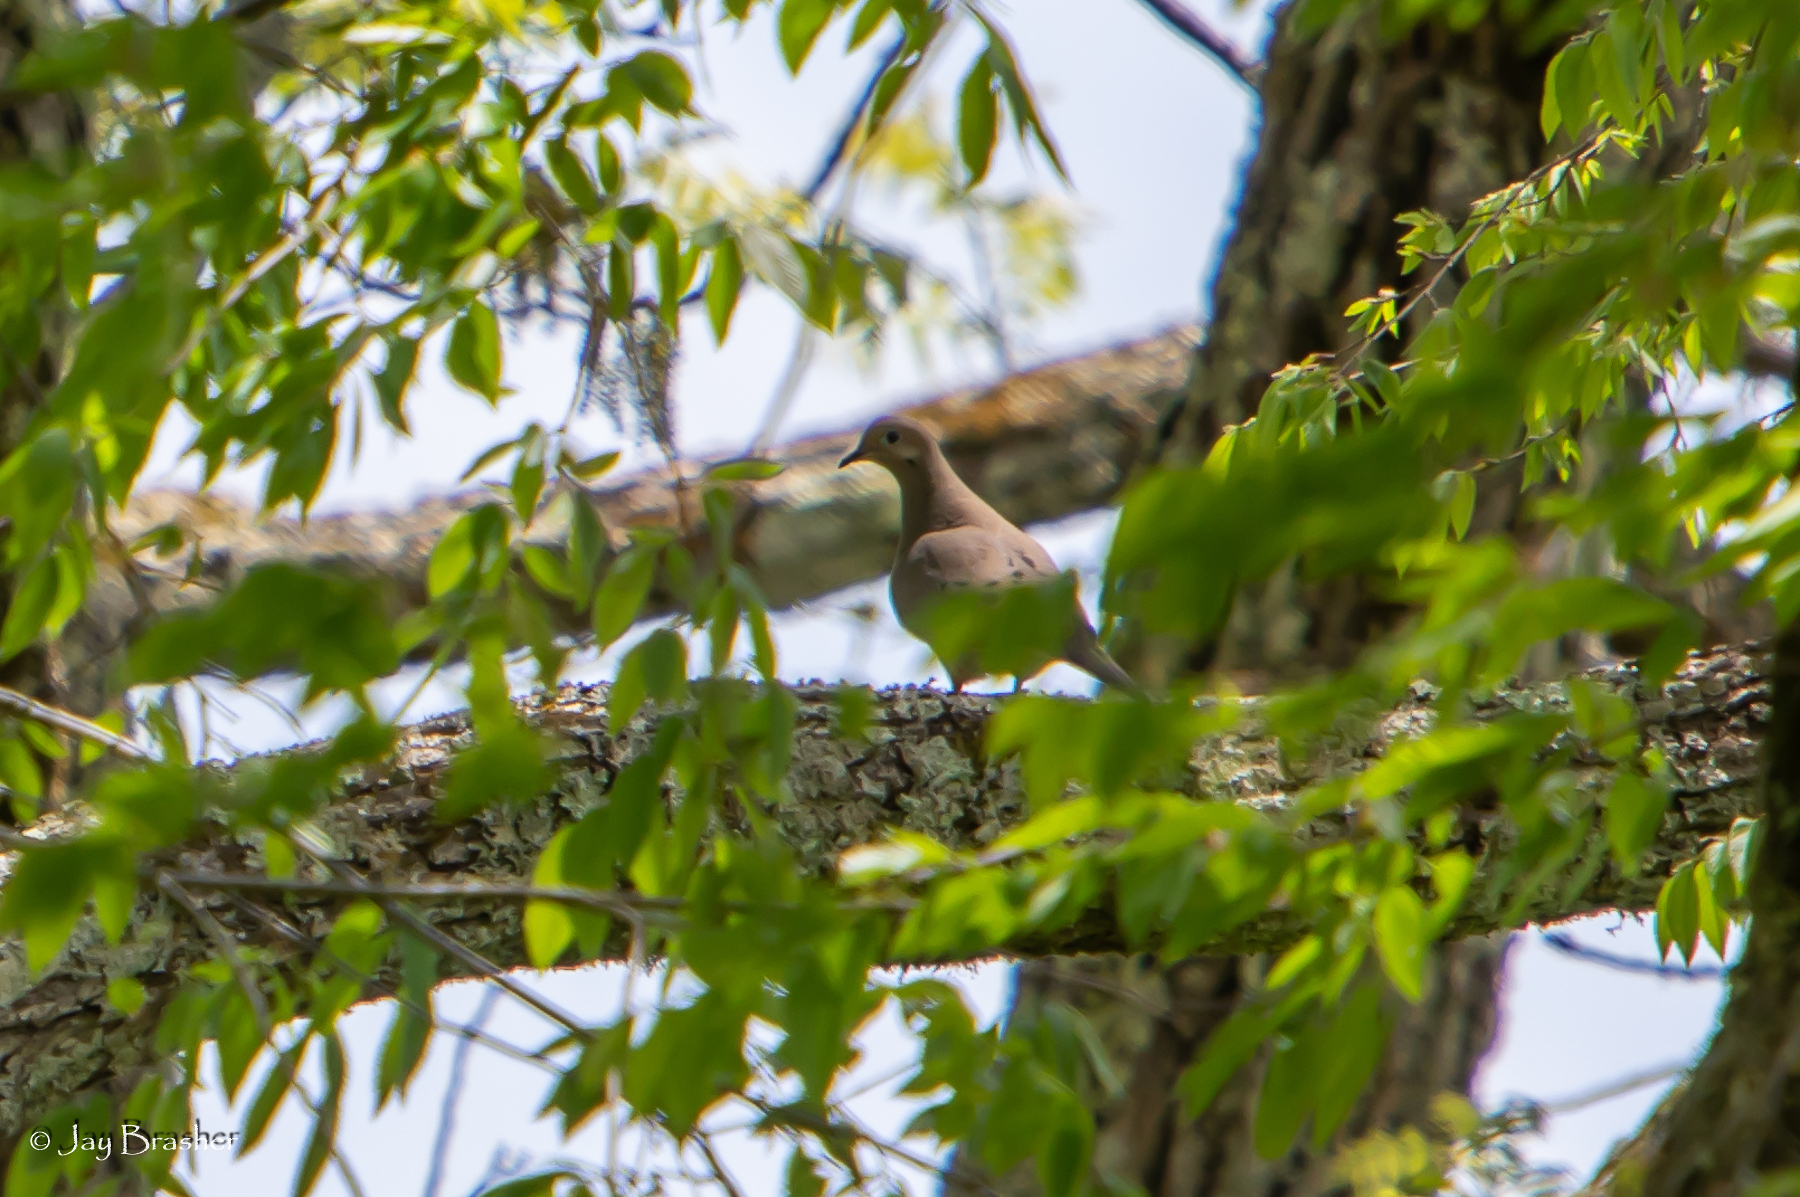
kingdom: Animalia
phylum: Chordata
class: Aves
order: Columbiformes
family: Columbidae
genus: Zenaida
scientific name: Zenaida macroura
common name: Mourning dove
